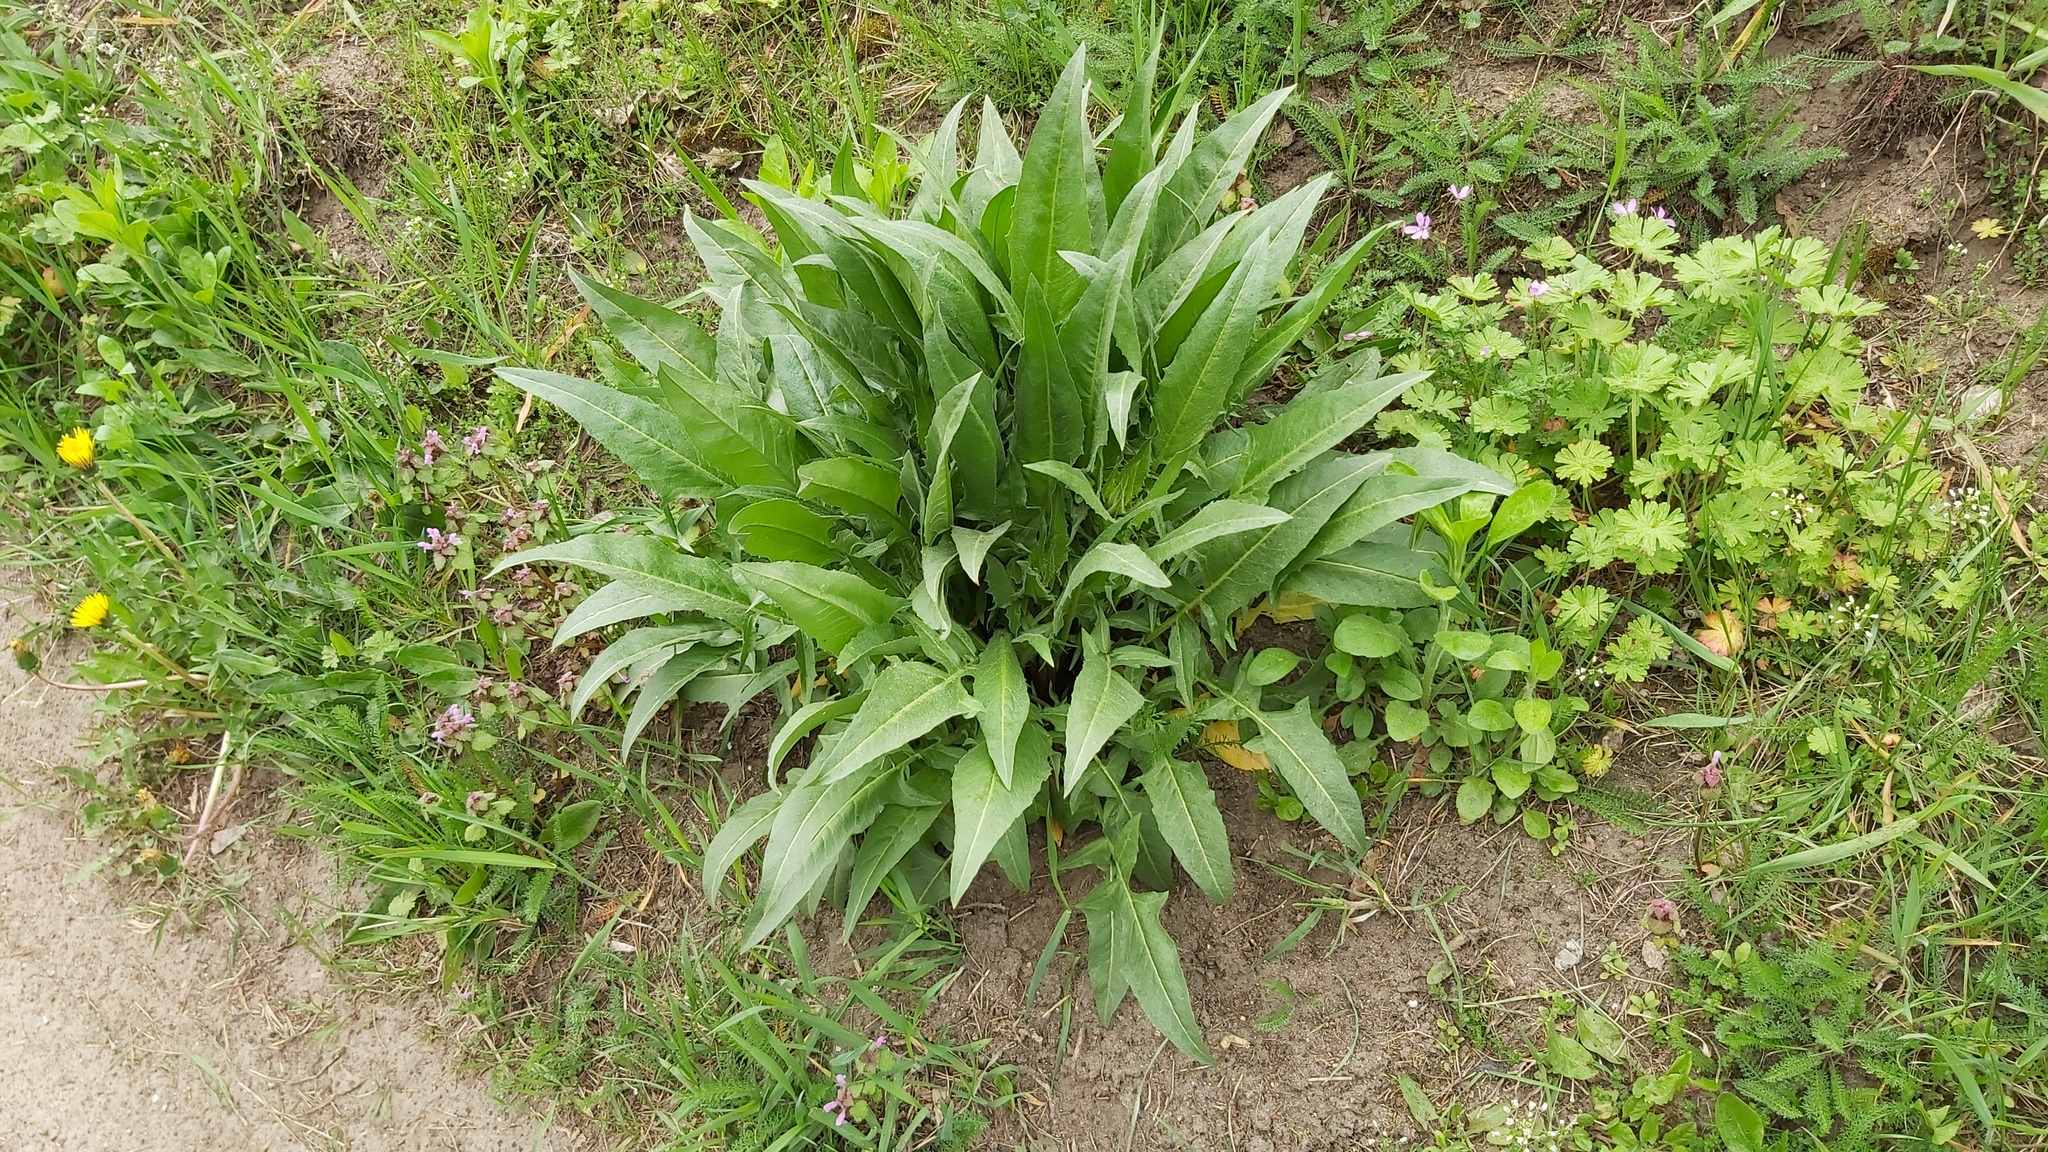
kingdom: Plantae
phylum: Tracheophyta
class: Magnoliopsida
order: Brassicales
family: Brassicaceae
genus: Bunias
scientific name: Bunias orientalis
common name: Warty-cabbage
